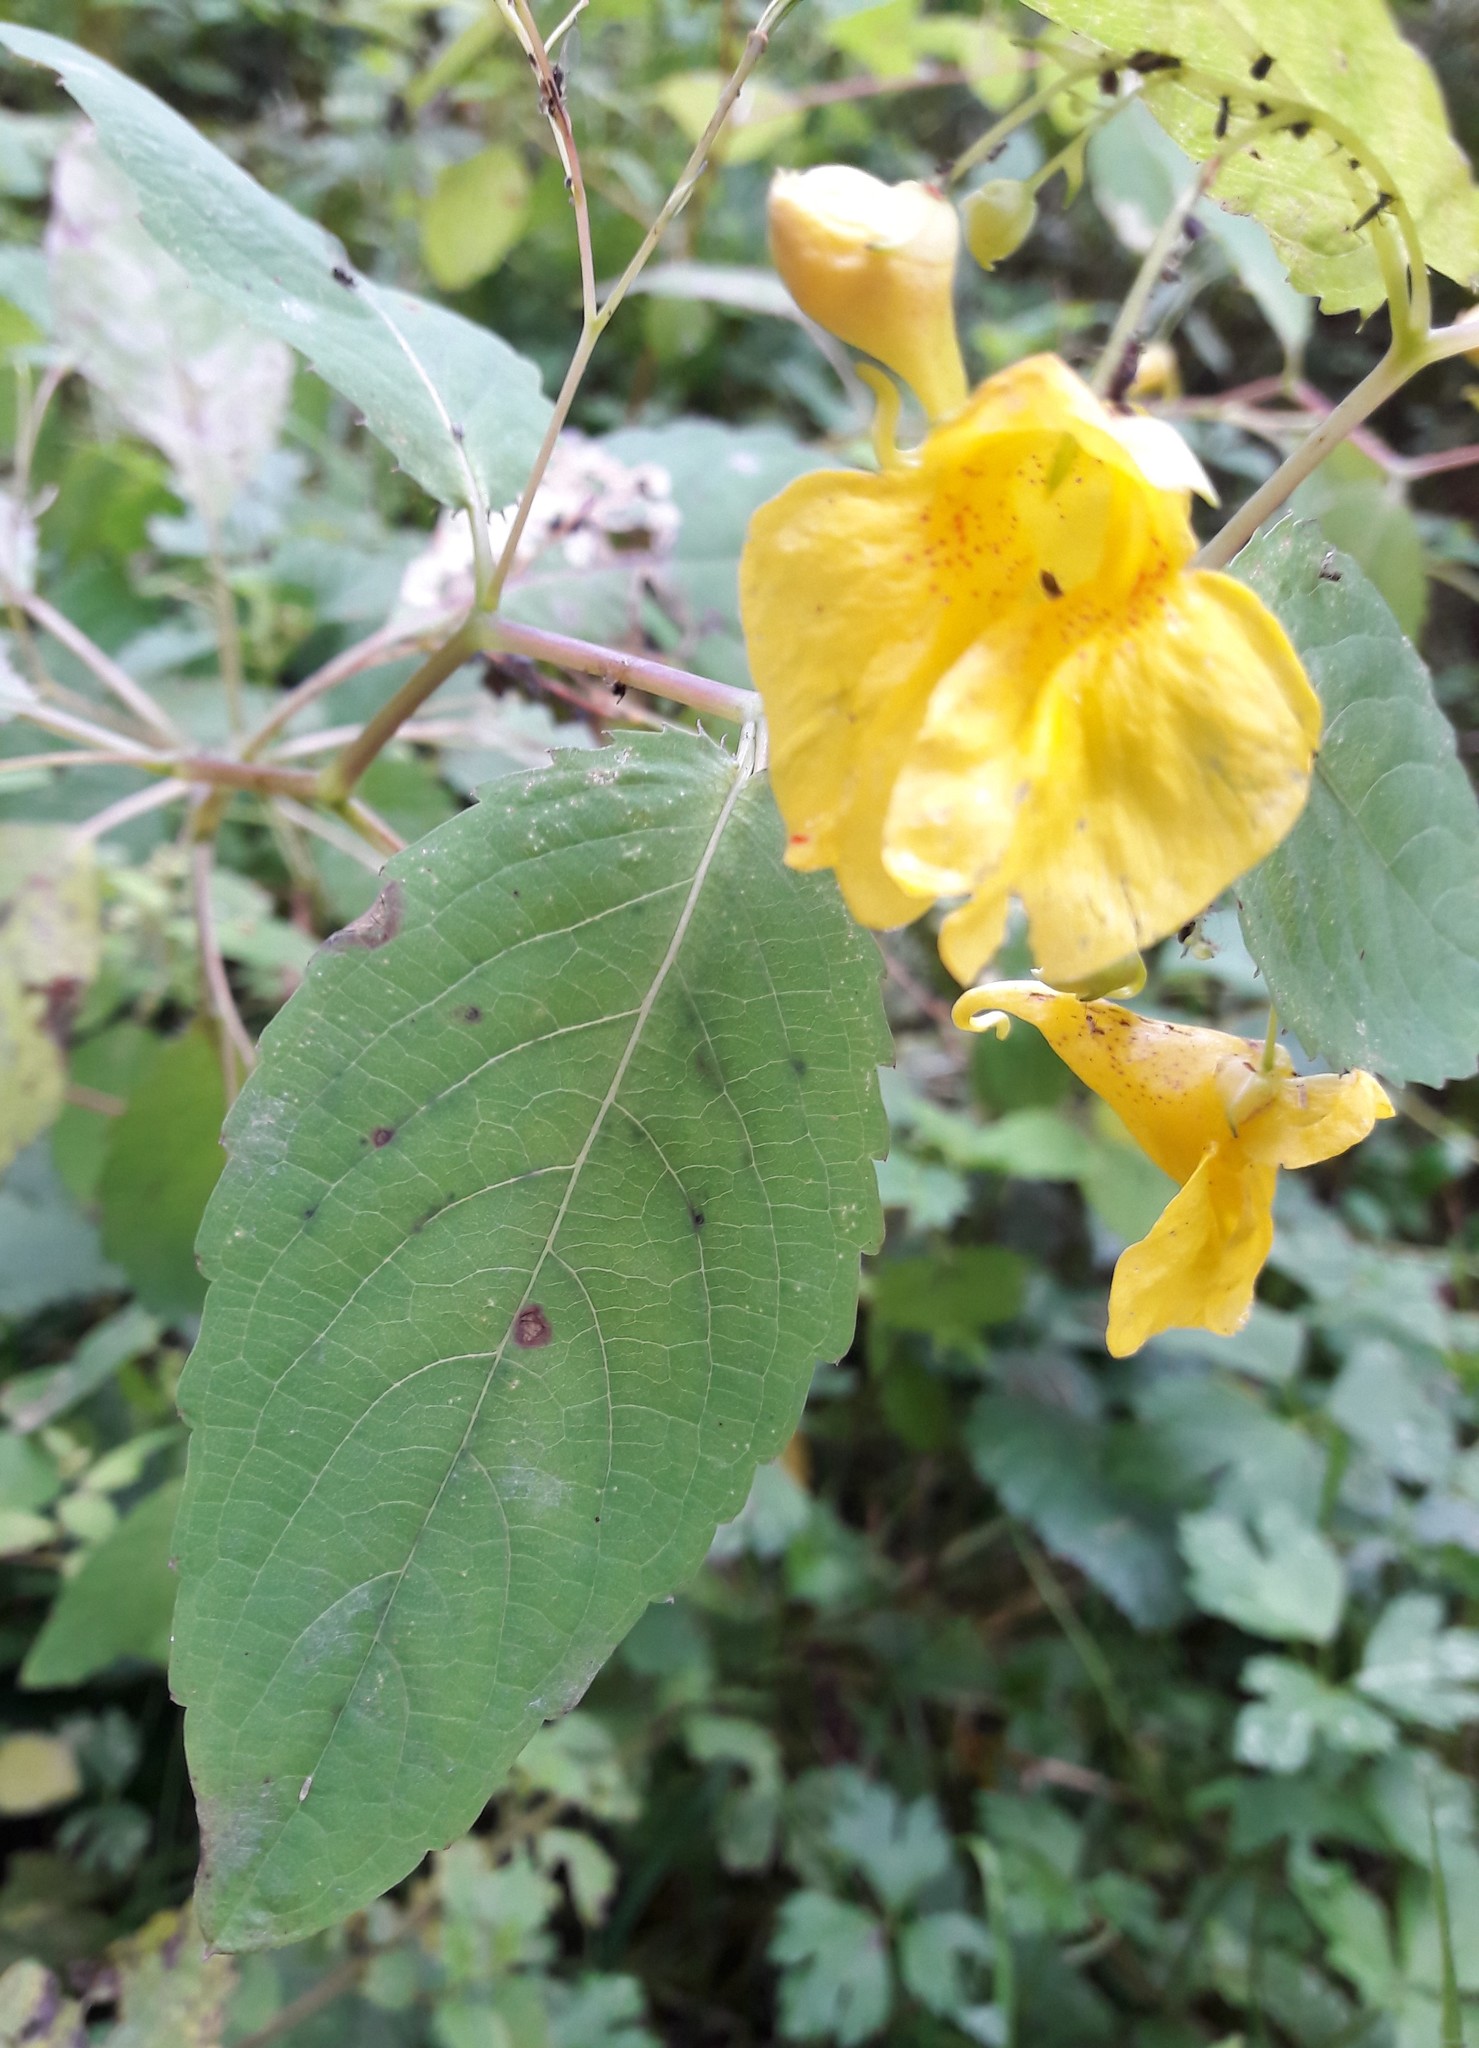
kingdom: Plantae
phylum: Tracheophyta
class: Magnoliopsida
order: Ericales
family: Balsaminaceae
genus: Impatiens
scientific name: Impatiens noli-tangere
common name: Touch-me-not balsam
